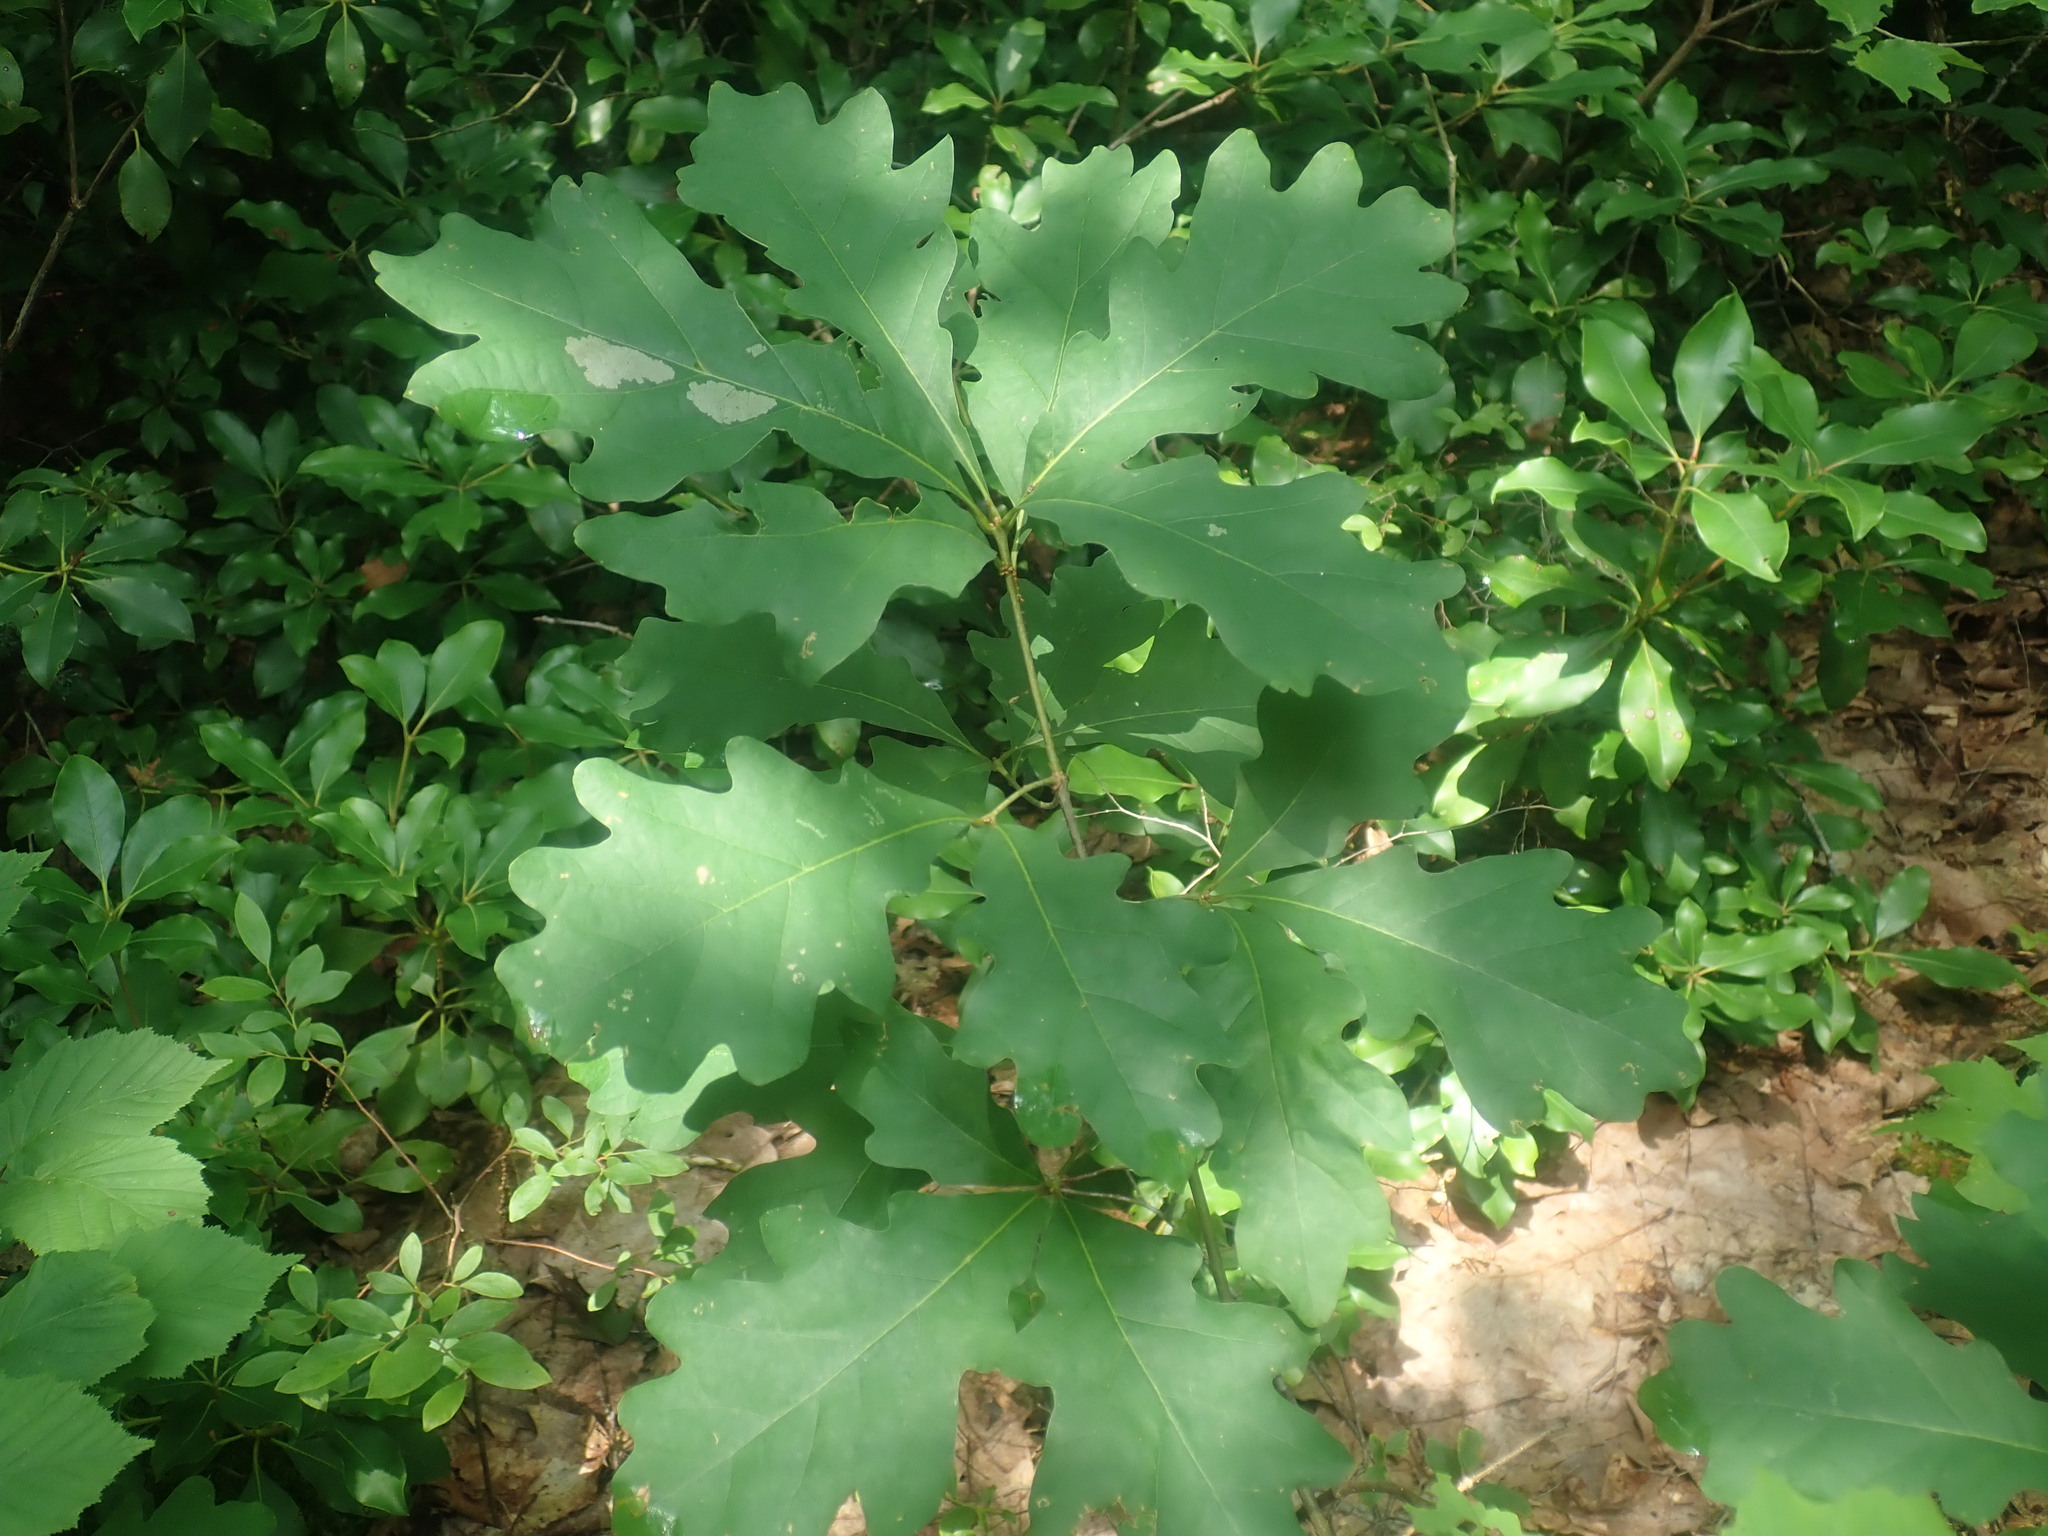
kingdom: Plantae
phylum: Tracheophyta
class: Magnoliopsida
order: Fagales
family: Fagaceae
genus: Quercus
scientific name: Quercus alba
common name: White oak
